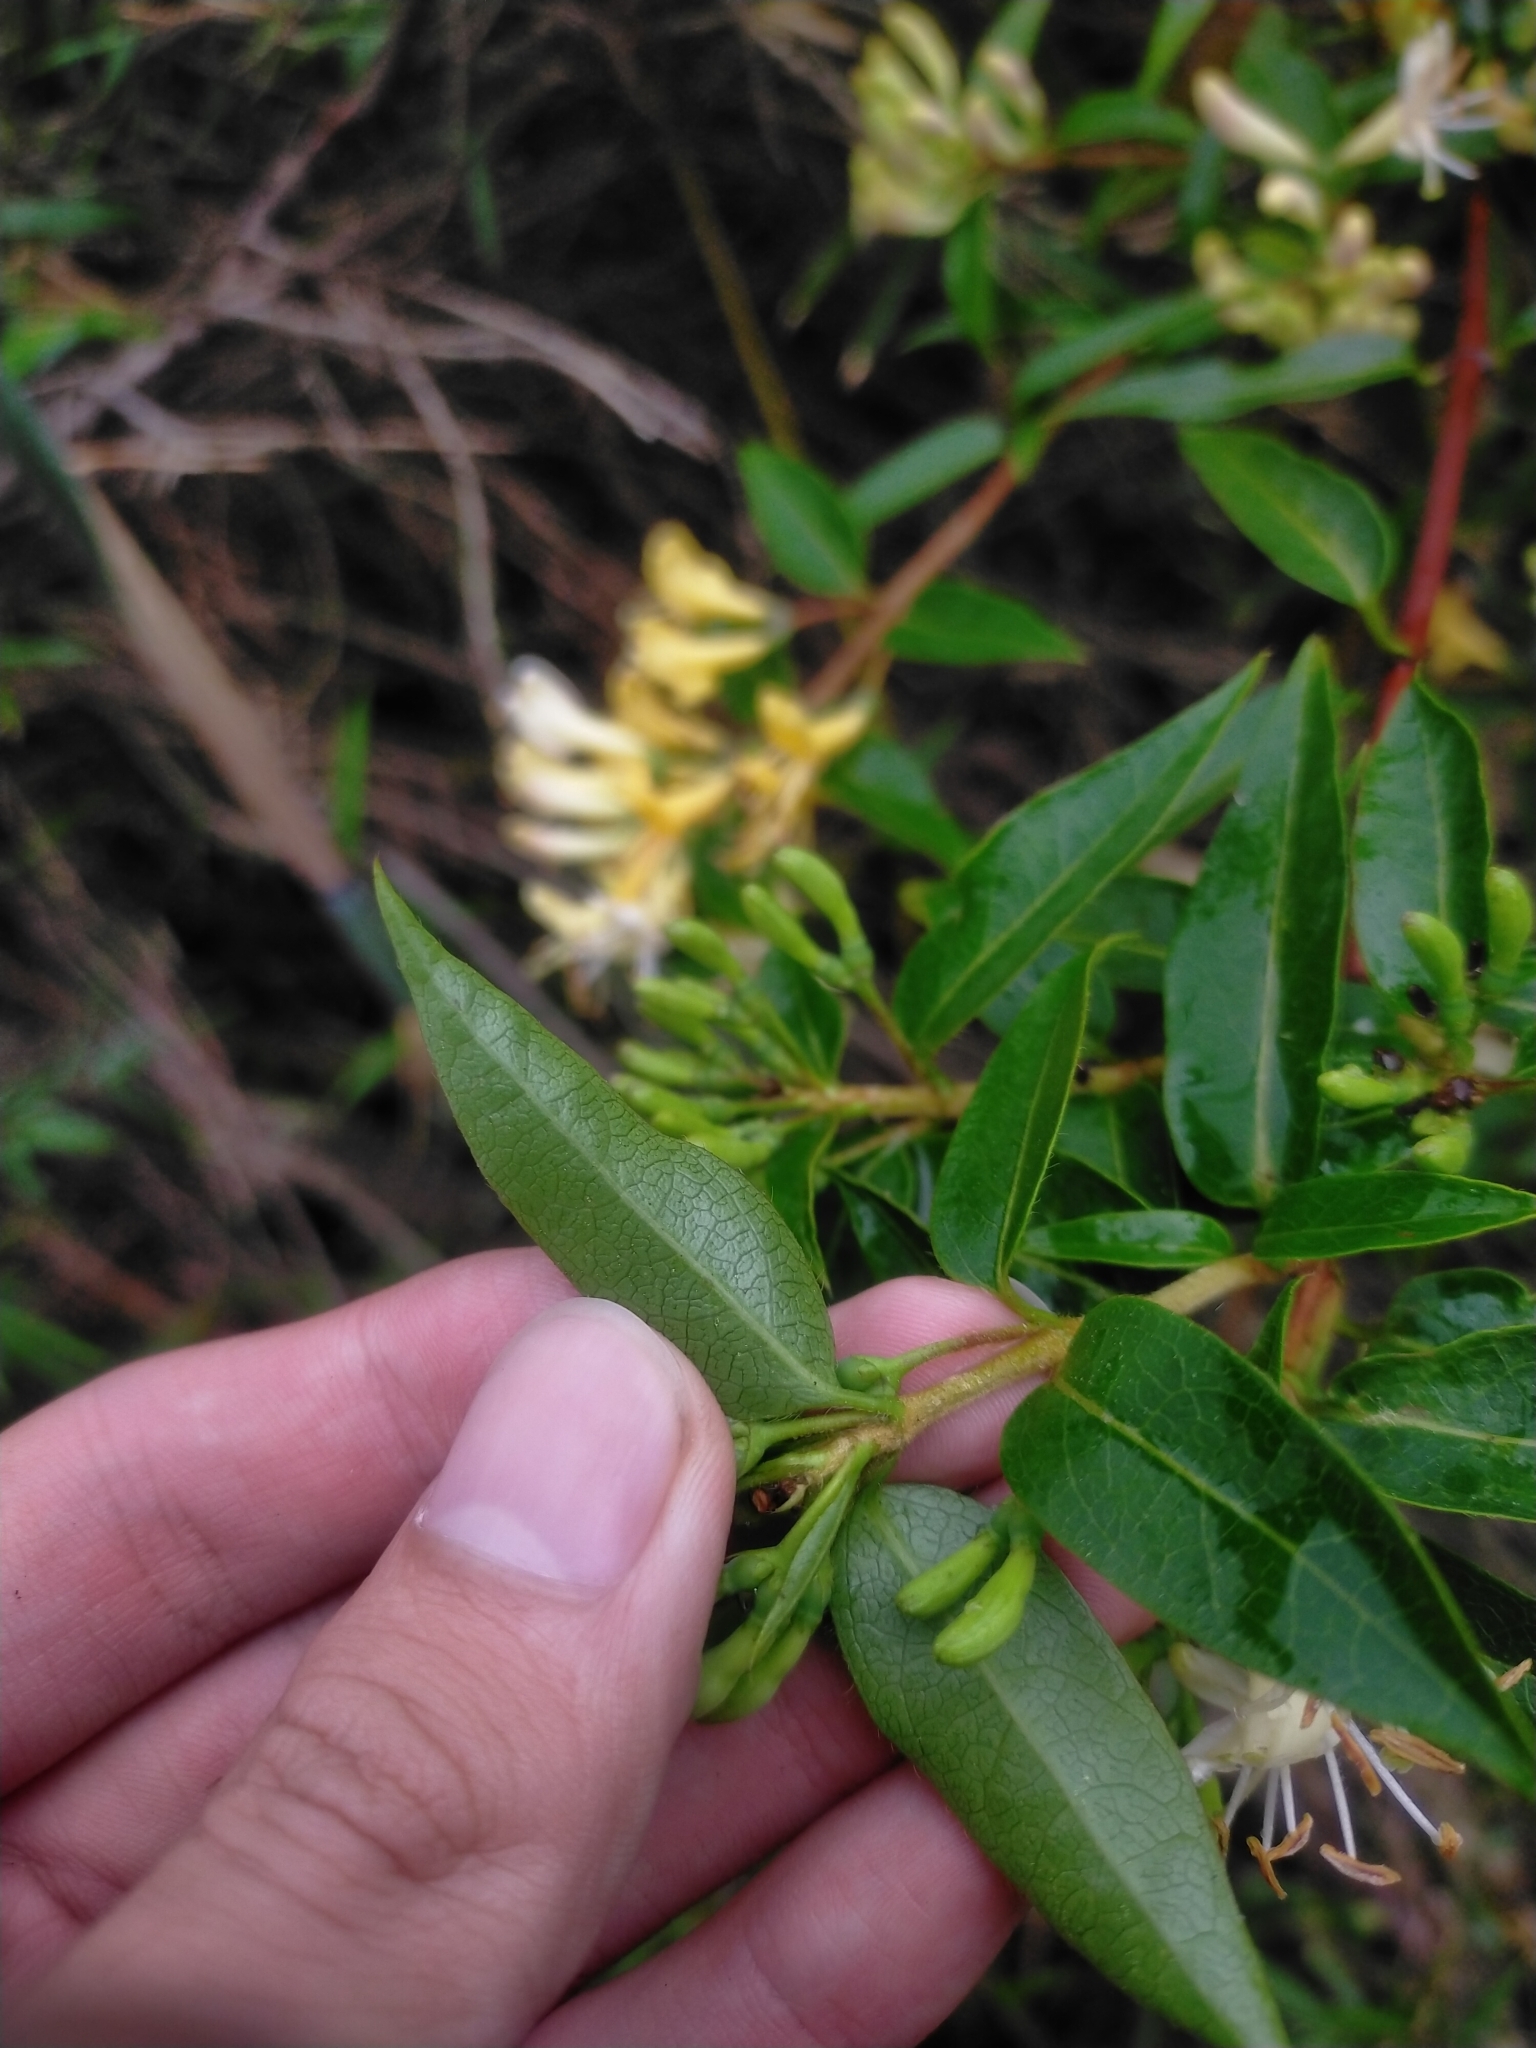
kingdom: Plantae
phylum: Tracheophyta
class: Magnoliopsida
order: Dipsacales
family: Caprifoliaceae
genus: Lonicera
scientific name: Lonicera acuminata
